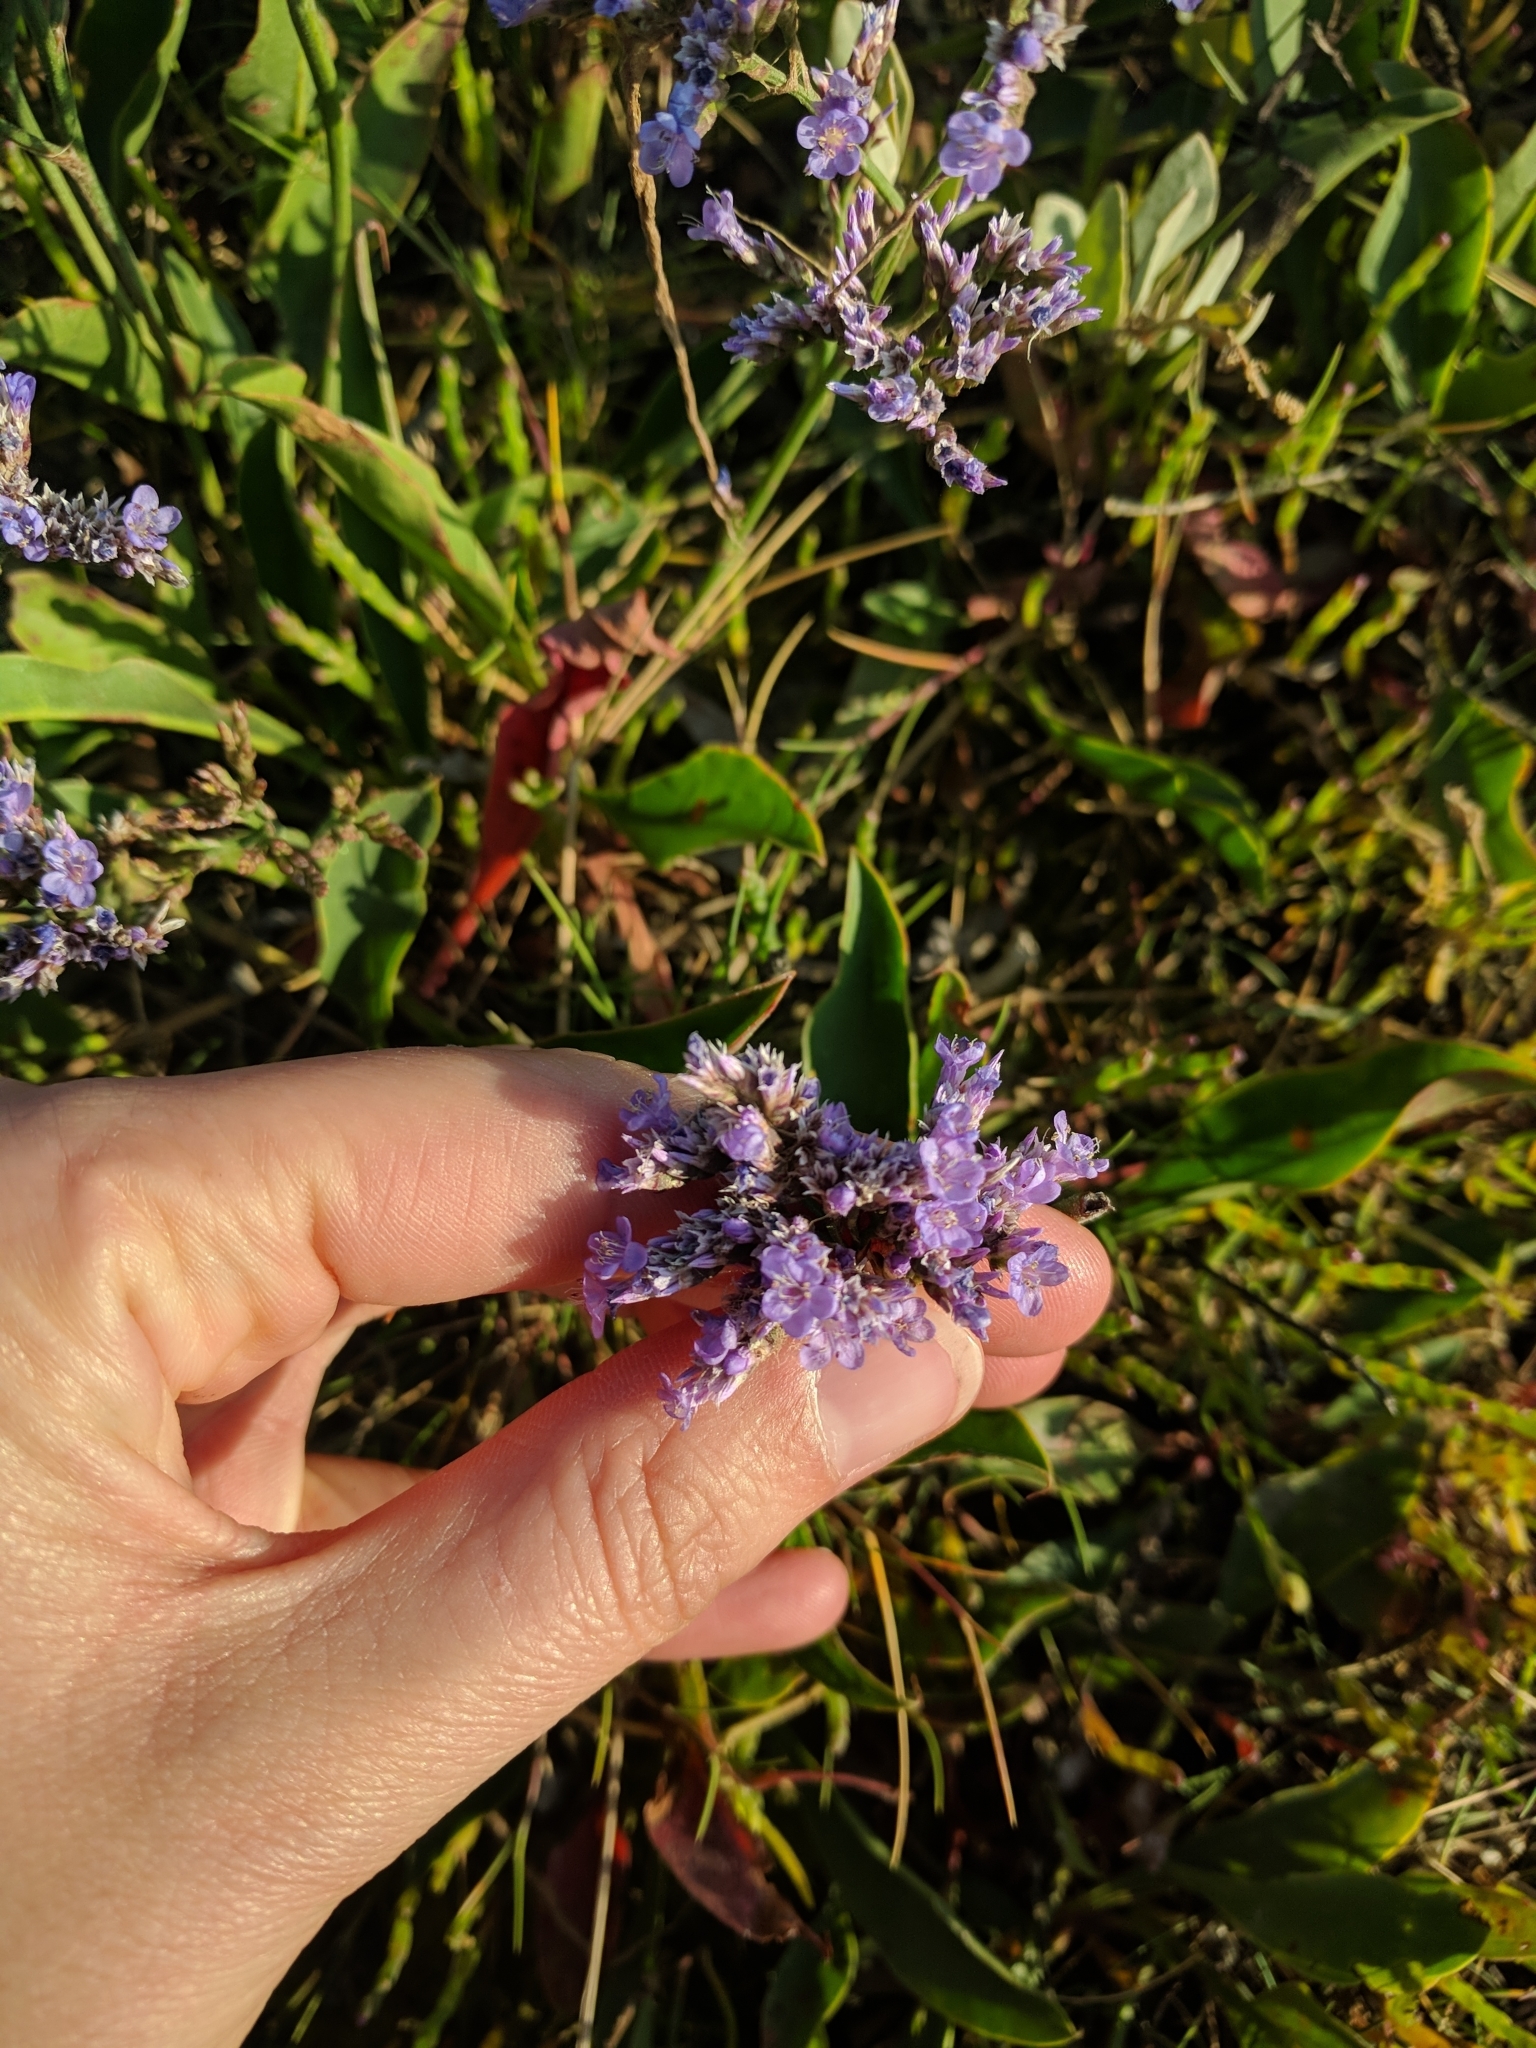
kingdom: Plantae
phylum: Tracheophyta
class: Magnoliopsida
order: Caryophyllales
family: Plumbaginaceae
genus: Limonium
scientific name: Limonium vulgare
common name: Common sea-lavender
